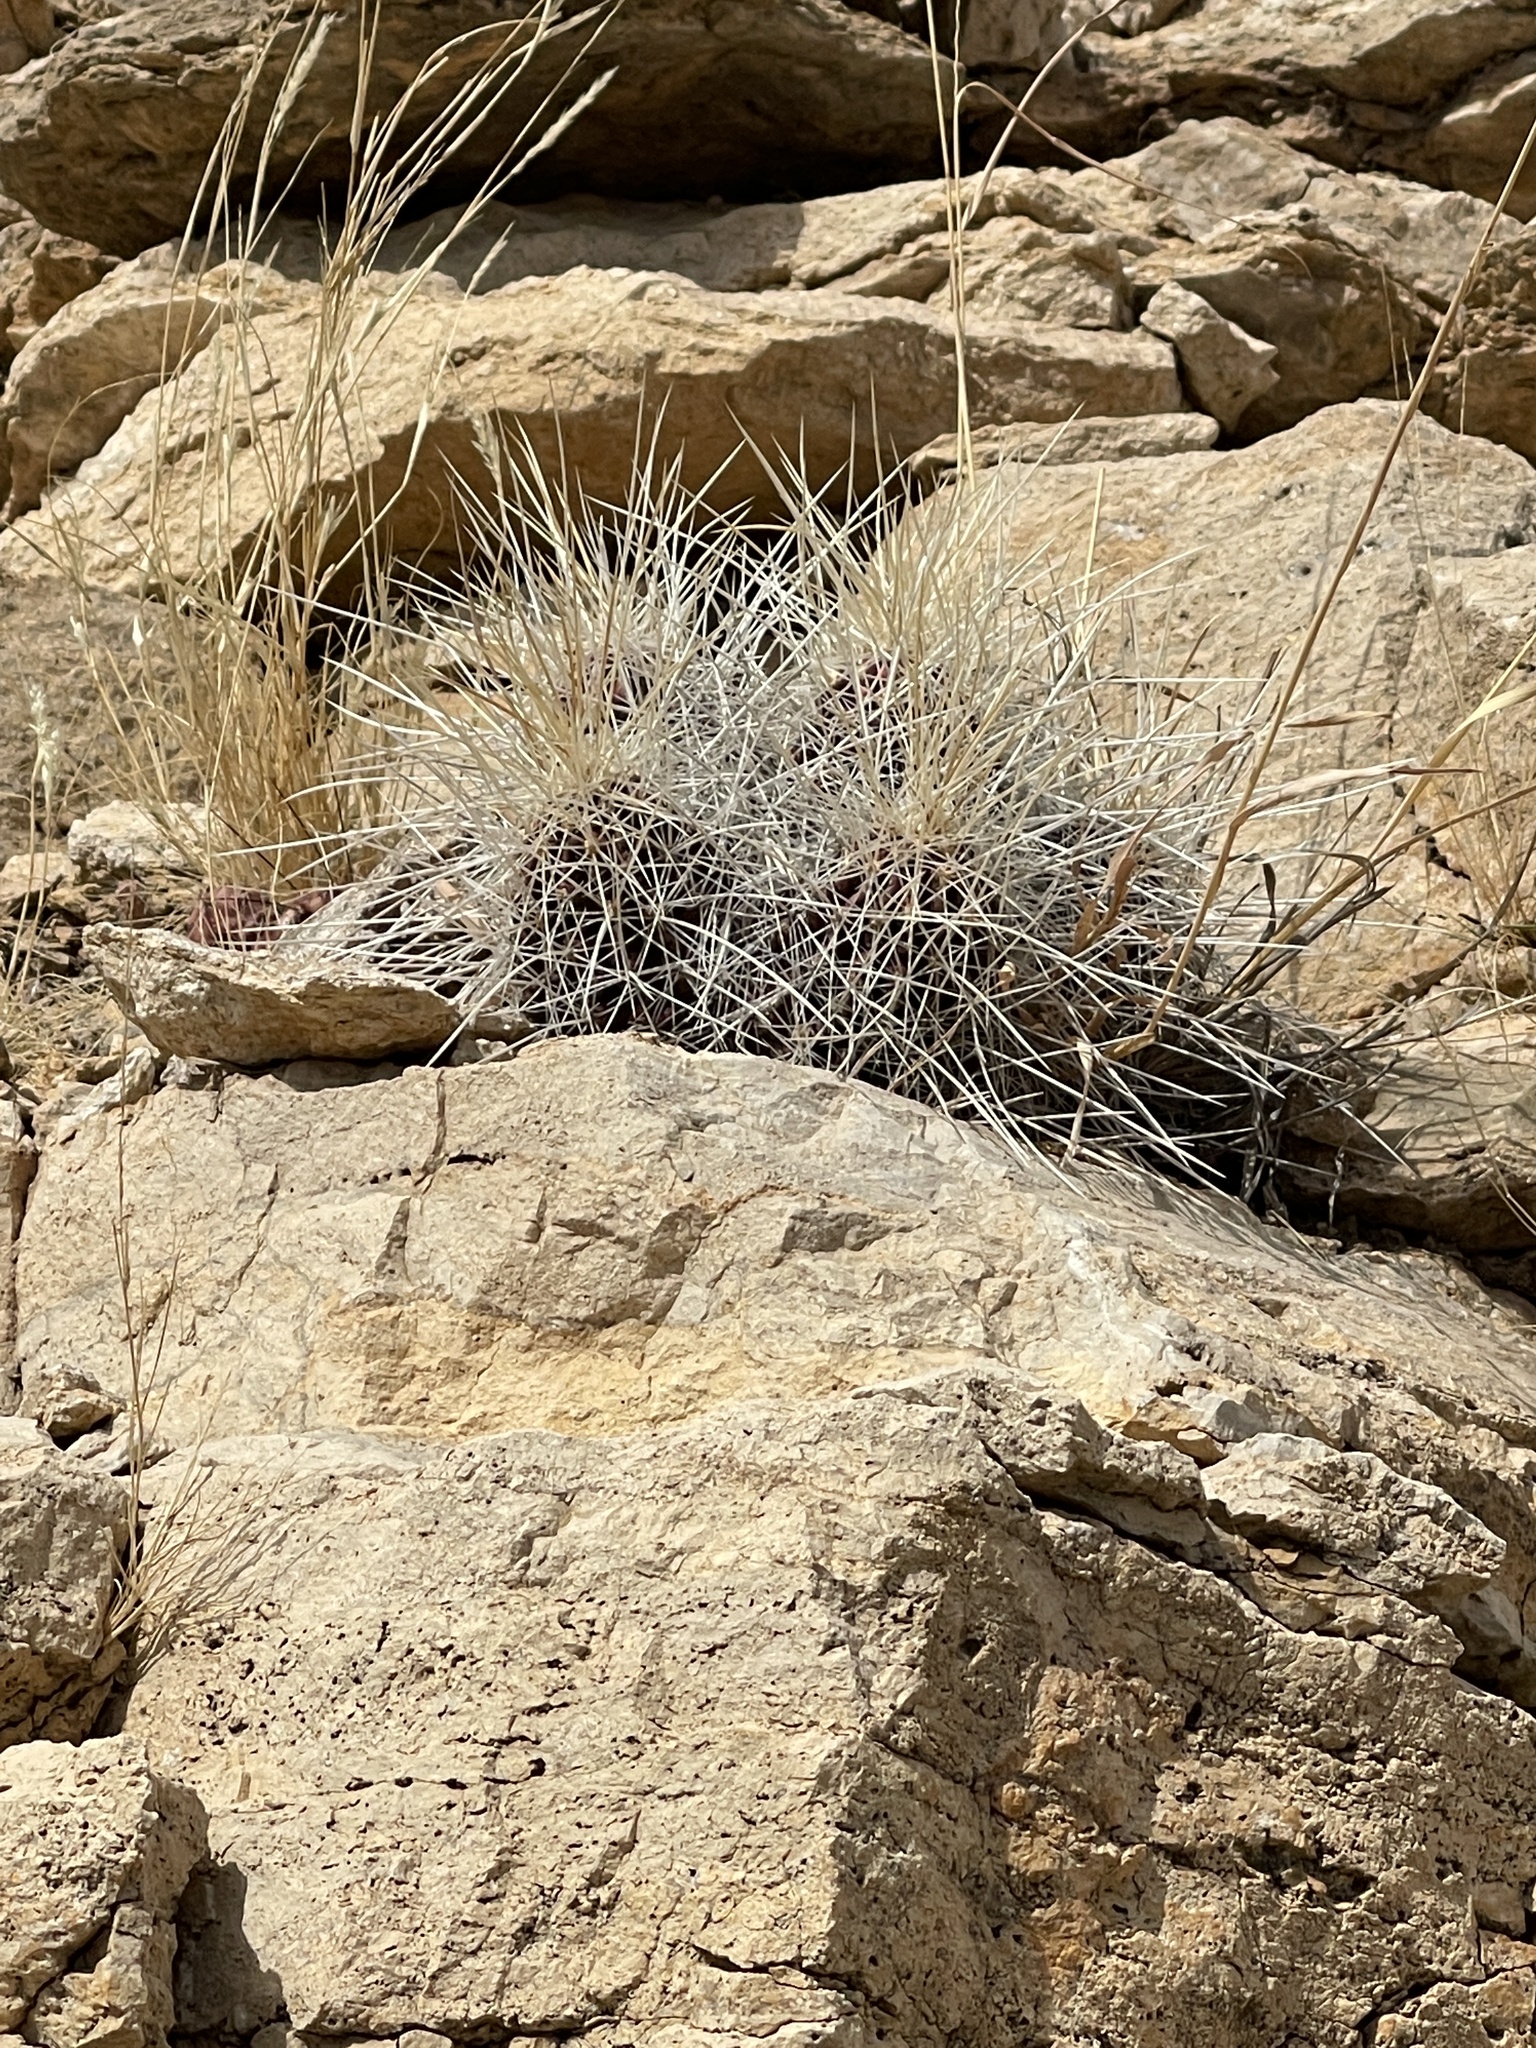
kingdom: Plantae
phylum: Tracheophyta
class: Magnoliopsida
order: Caryophyllales
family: Cactaceae
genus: Echinocereus
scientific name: Echinocereus stramineus
